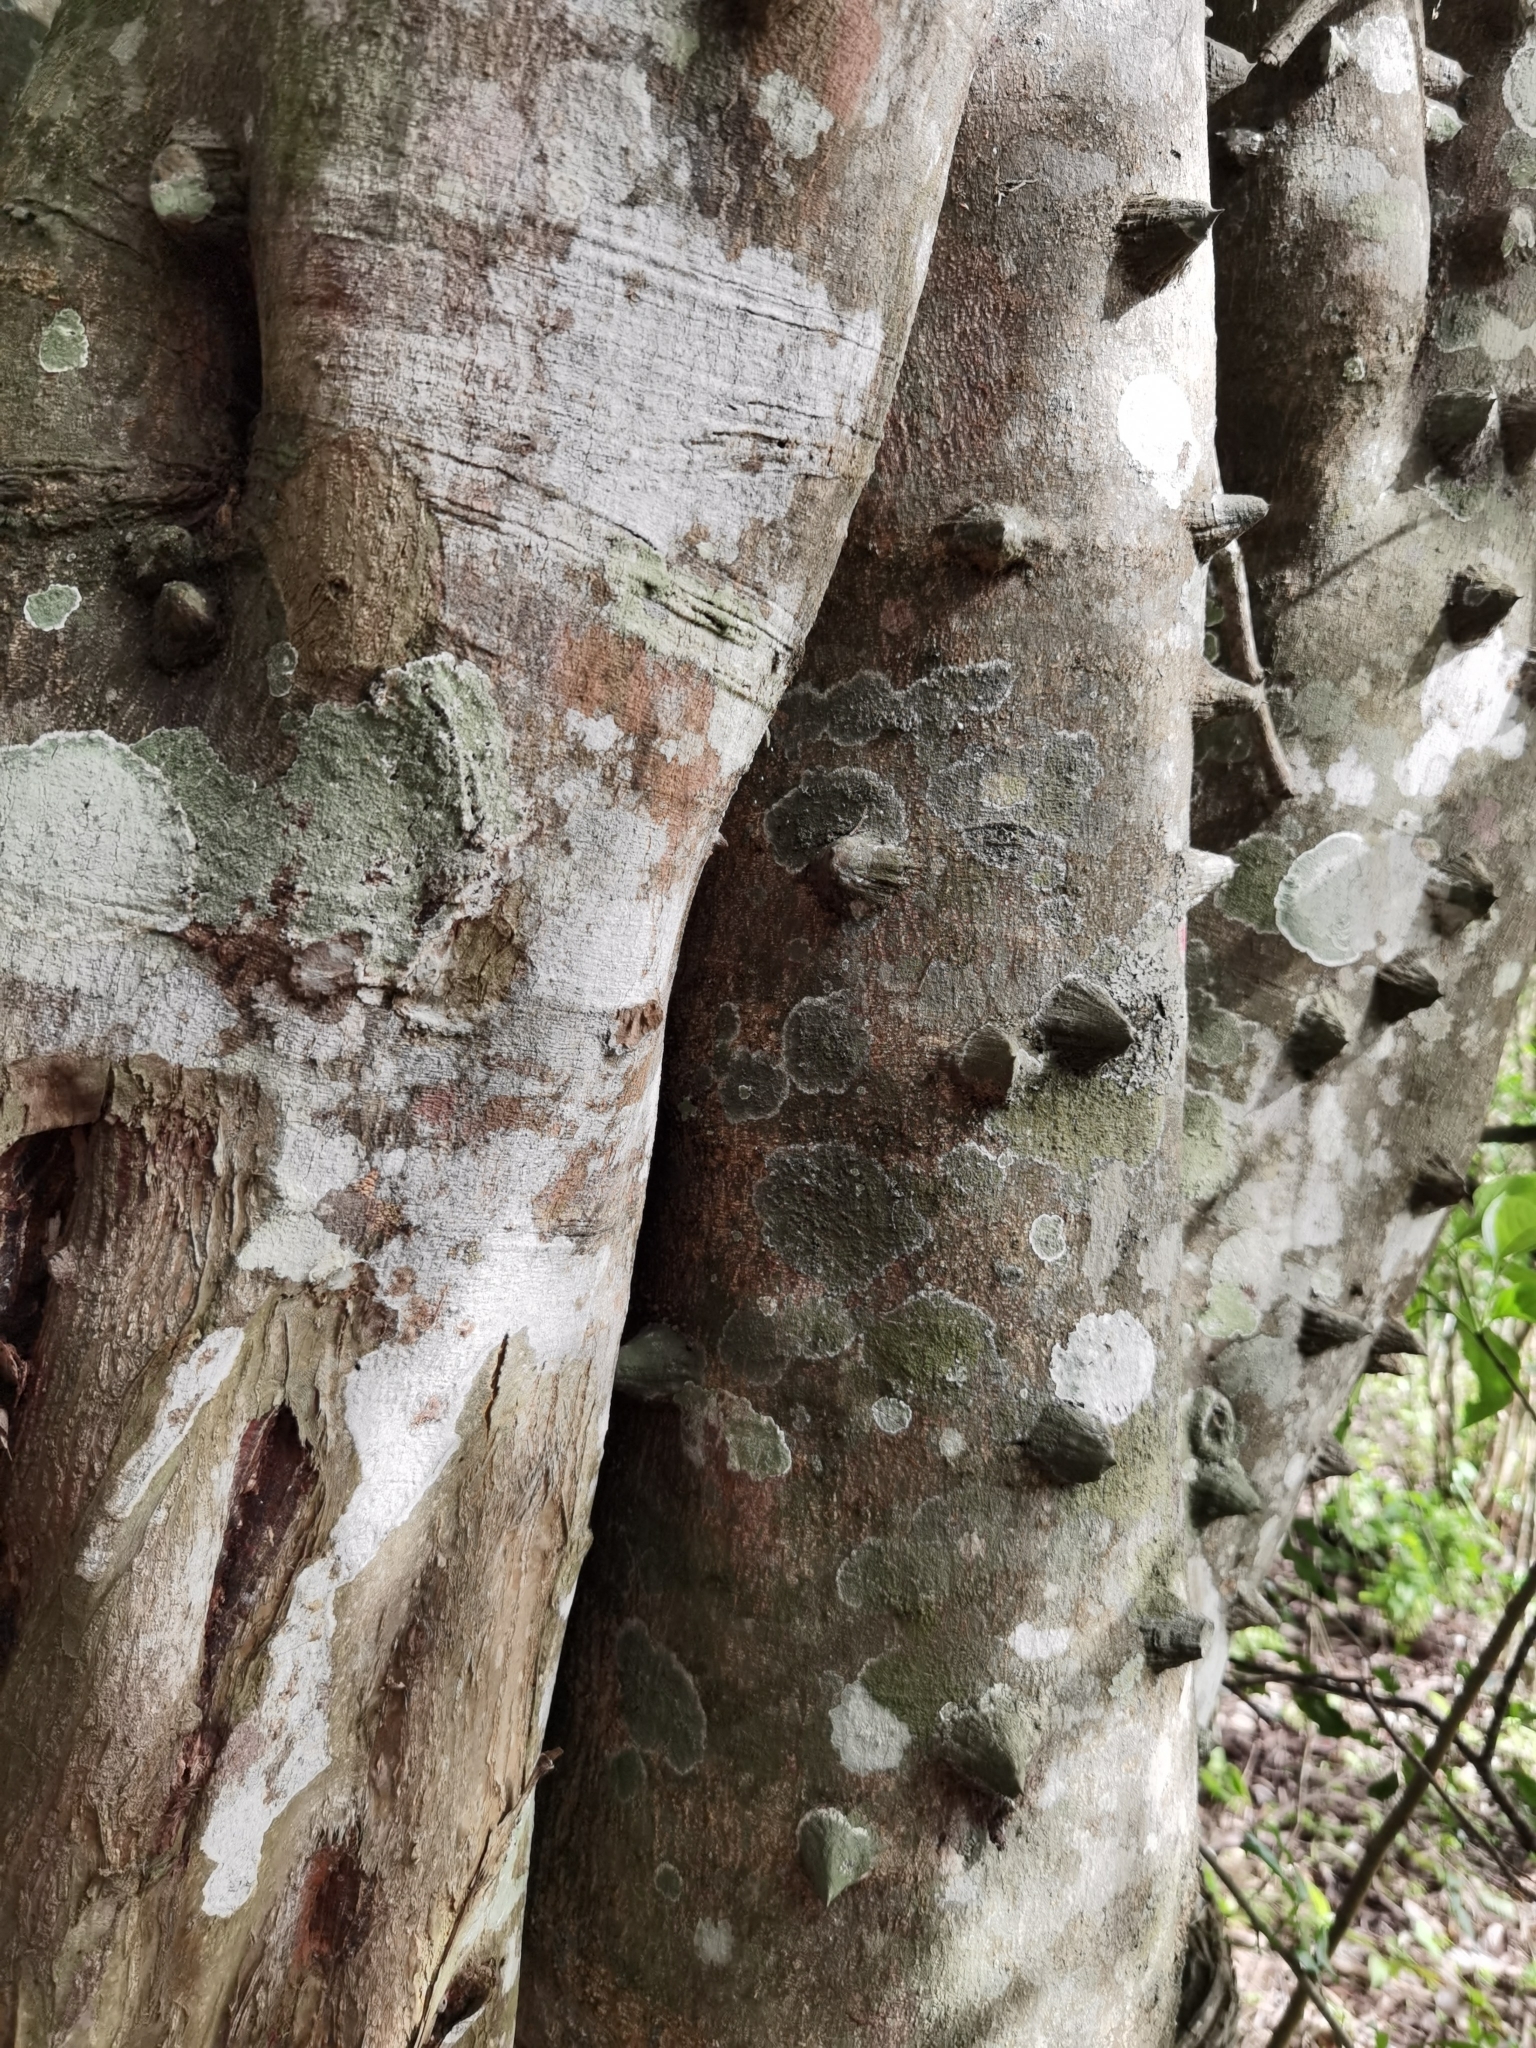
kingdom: Plantae
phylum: Tracheophyta
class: Magnoliopsida
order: Sapindales
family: Rutaceae
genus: Zanthoxylum
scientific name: Zanthoxylum schreberi
